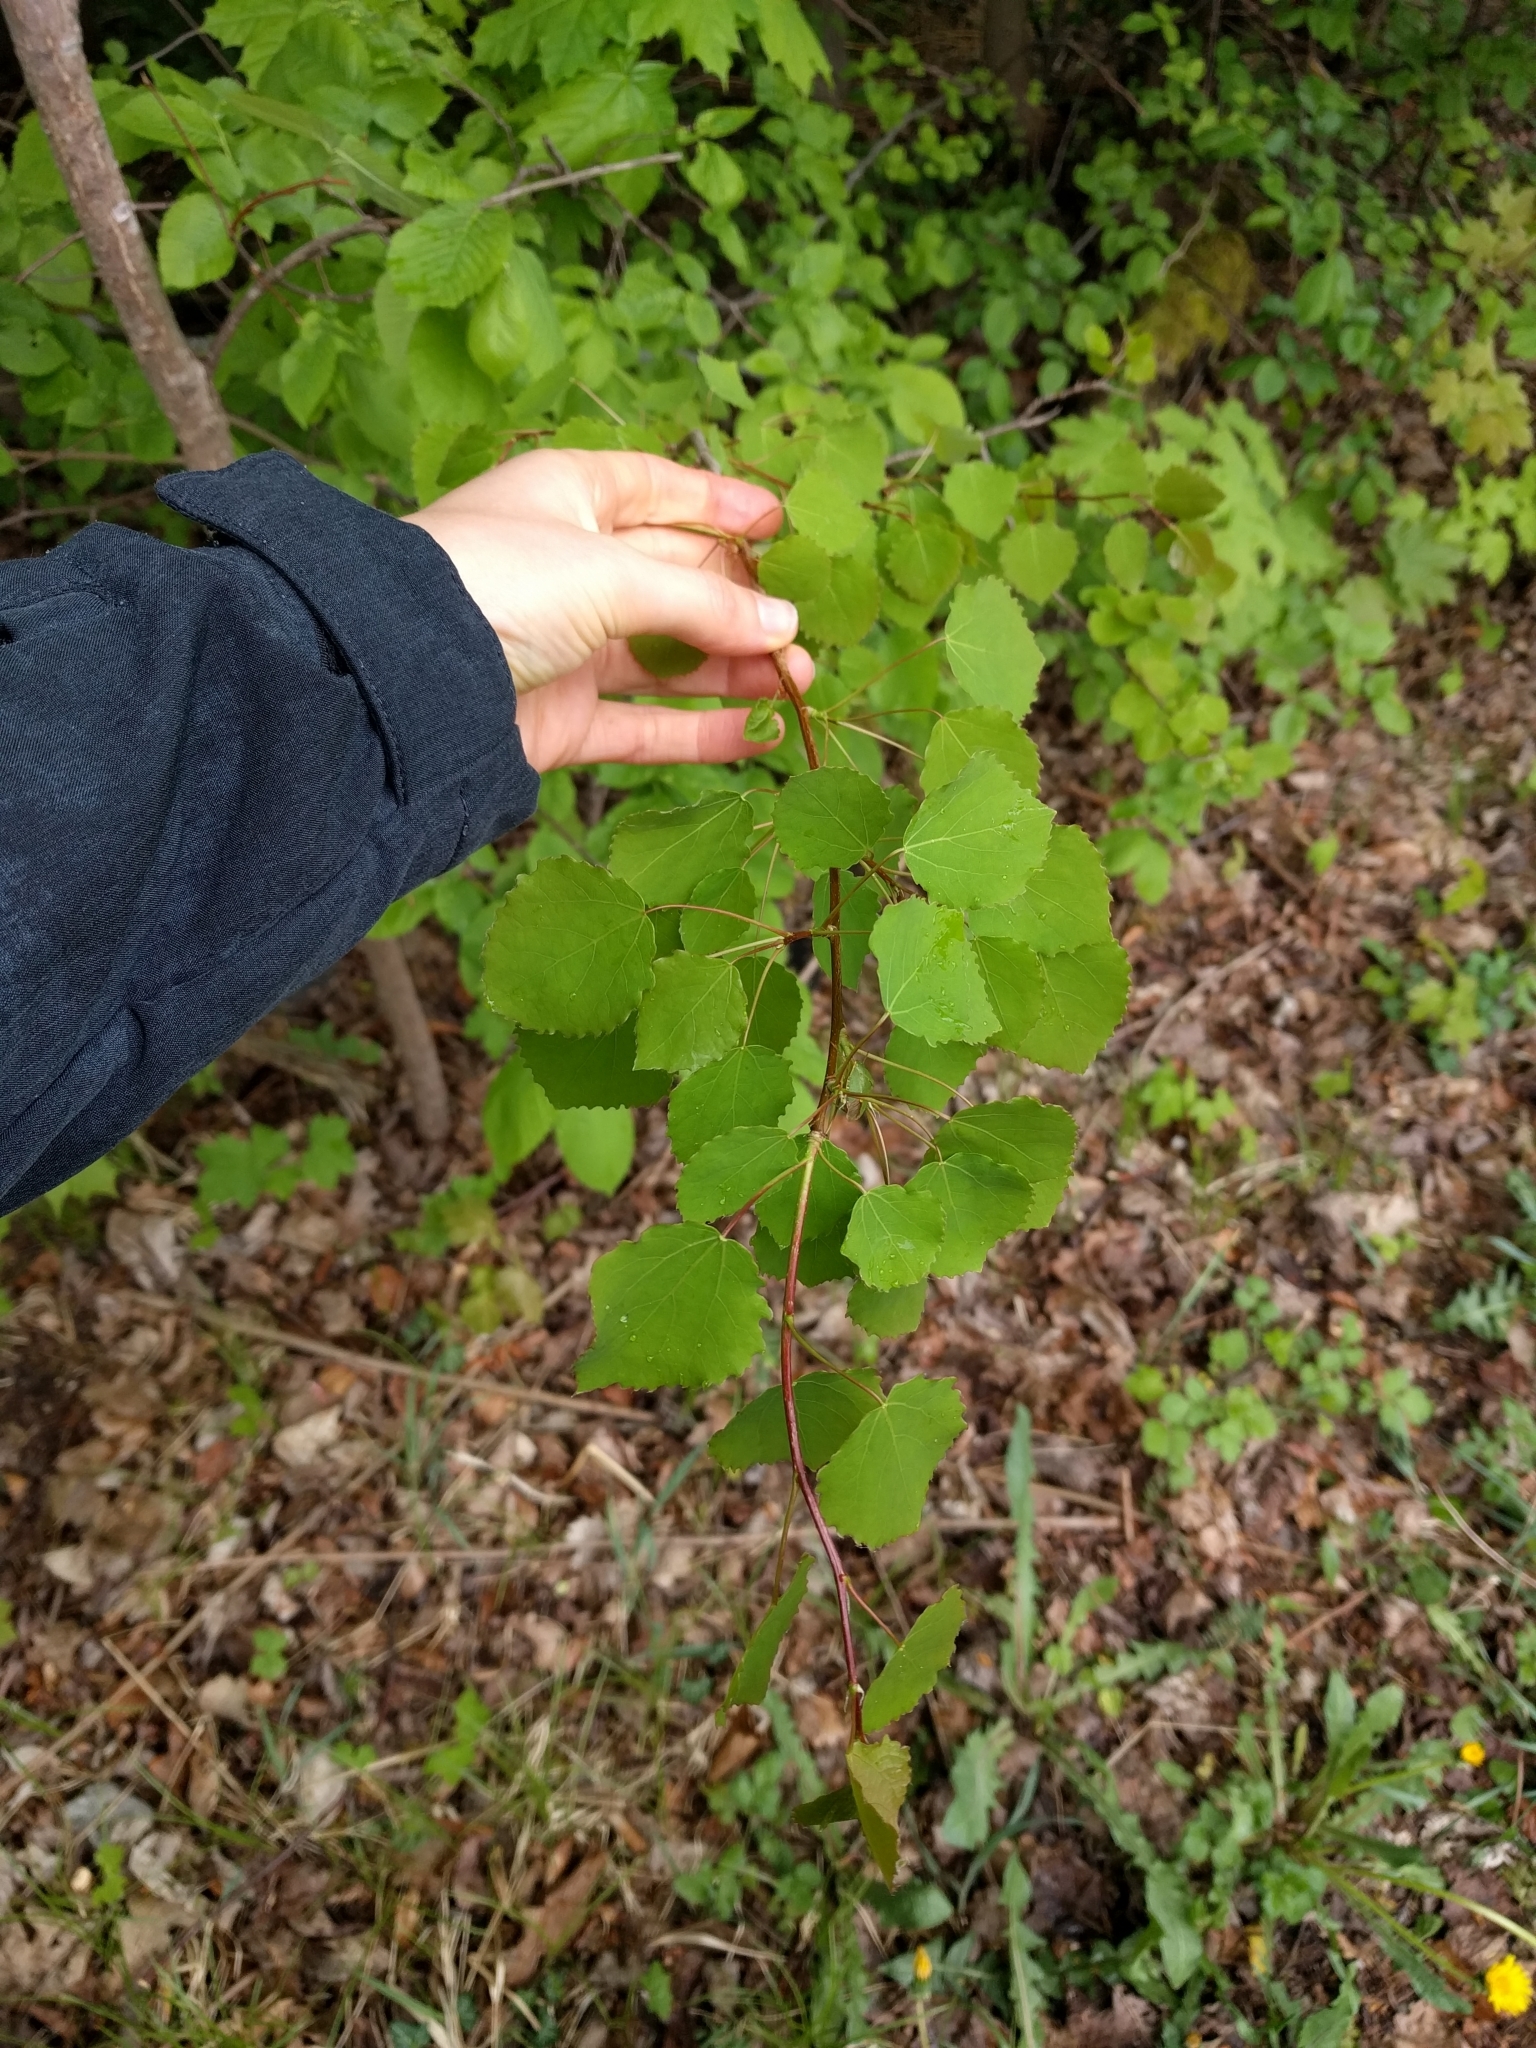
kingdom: Plantae
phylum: Tracheophyta
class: Magnoliopsida
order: Malpighiales
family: Salicaceae
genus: Populus
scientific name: Populus tremula
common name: European aspen
